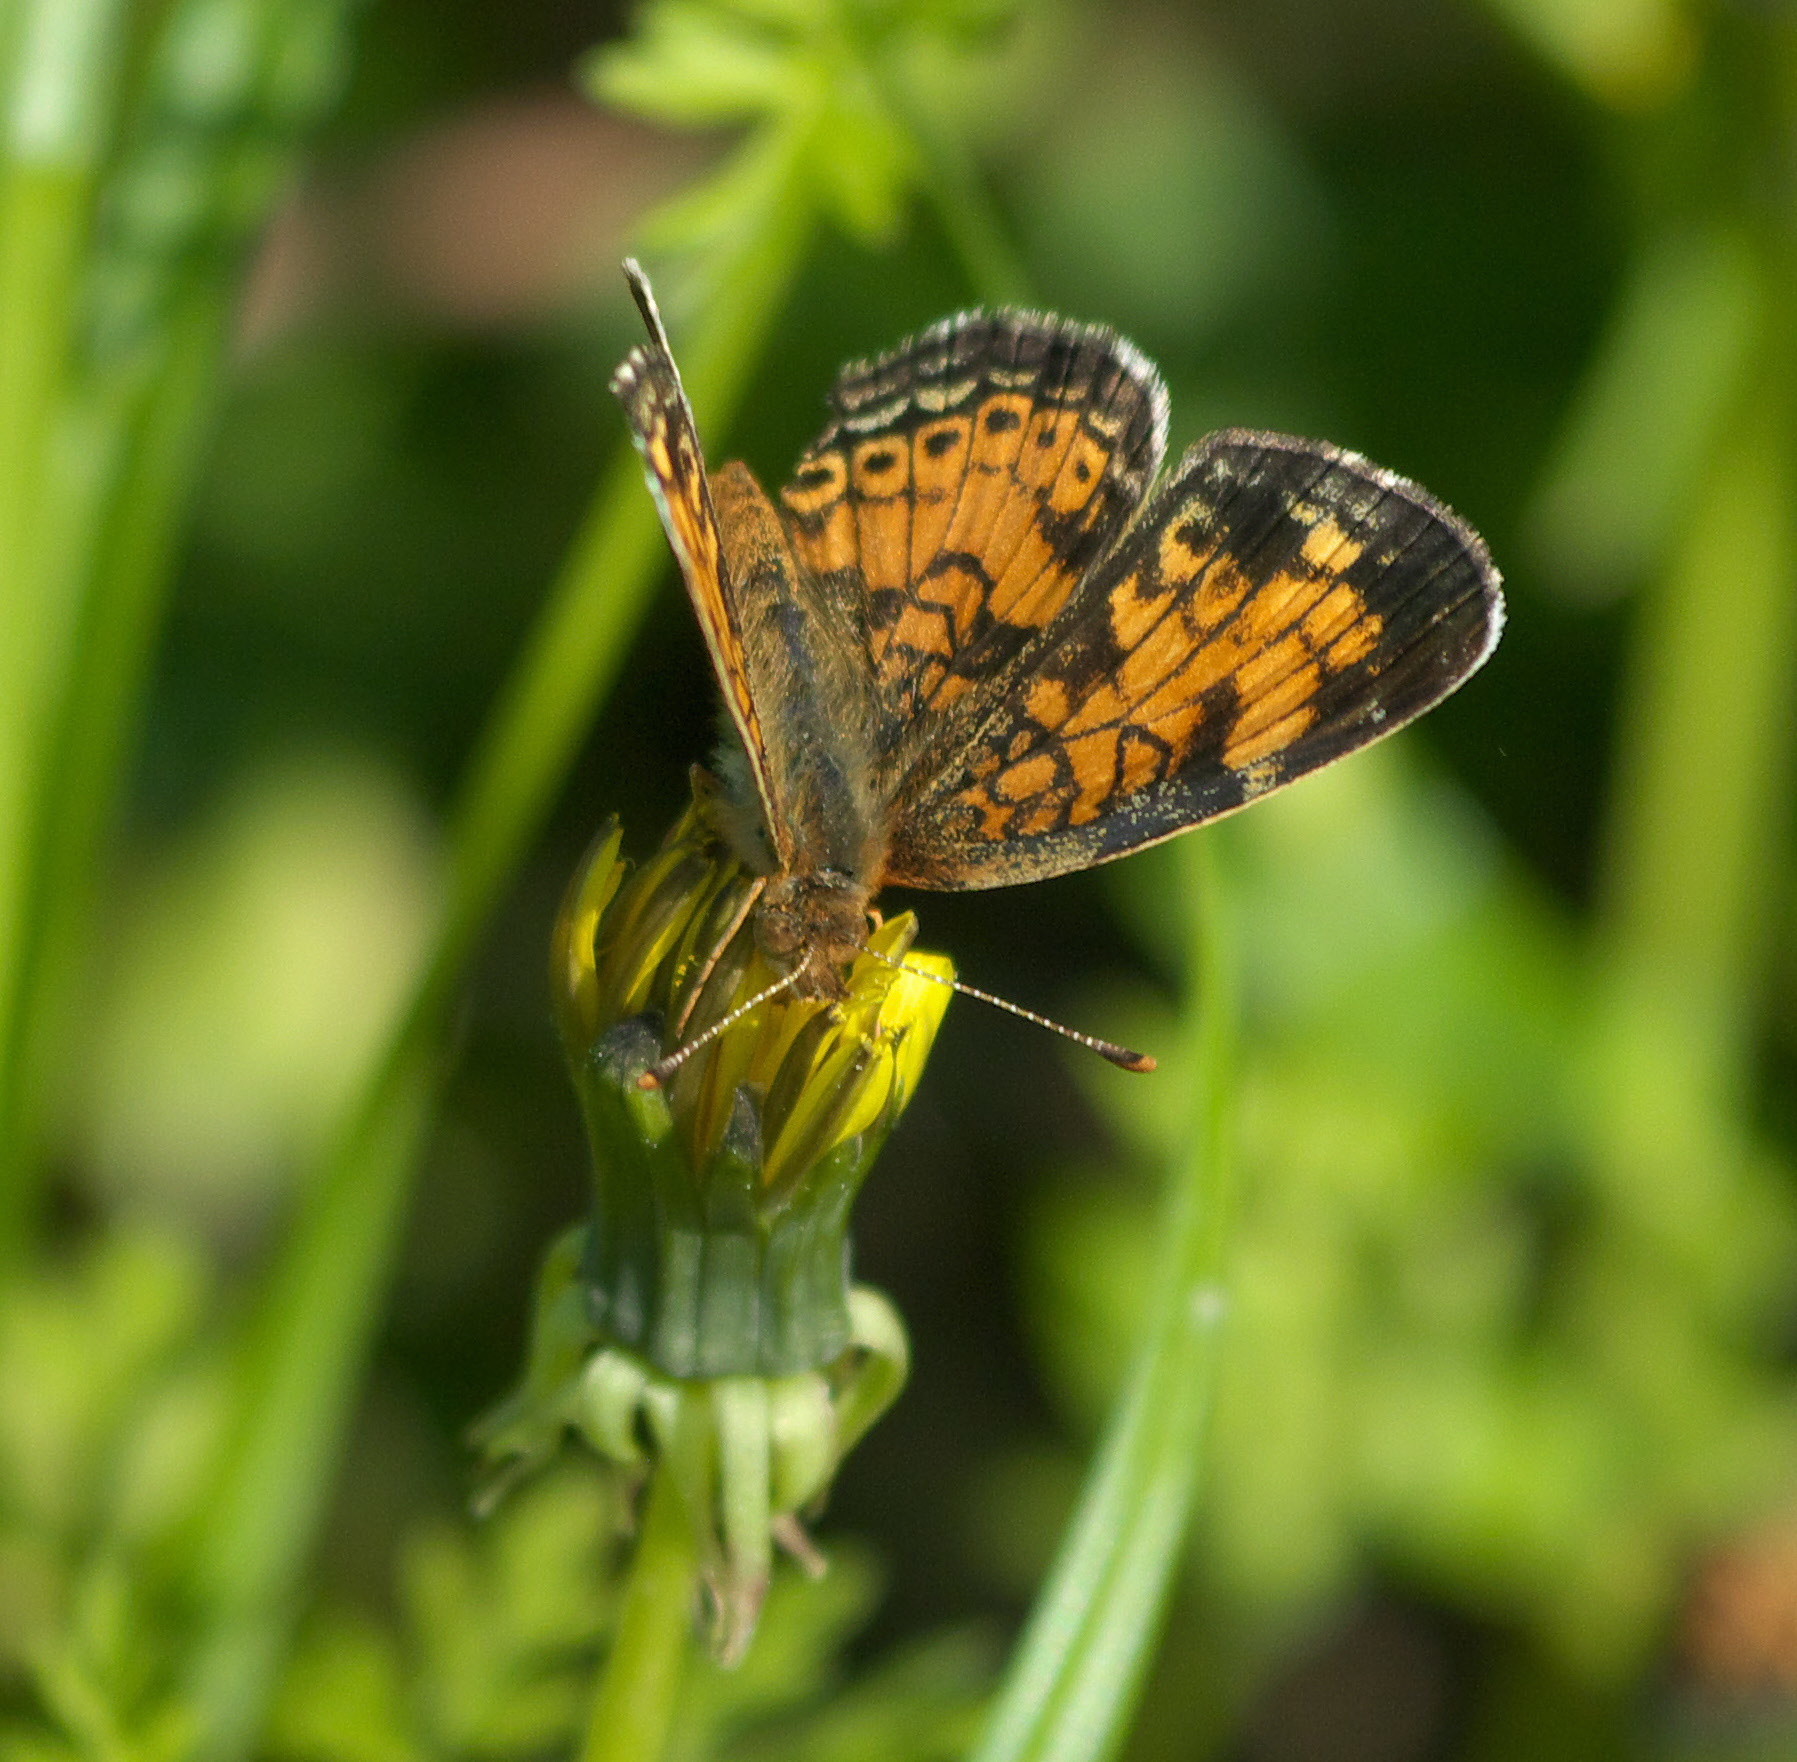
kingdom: Animalia
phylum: Arthropoda
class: Insecta
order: Lepidoptera
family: Nymphalidae
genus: Phyciodes
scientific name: Phyciodes tharos
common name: Pearl crescent
